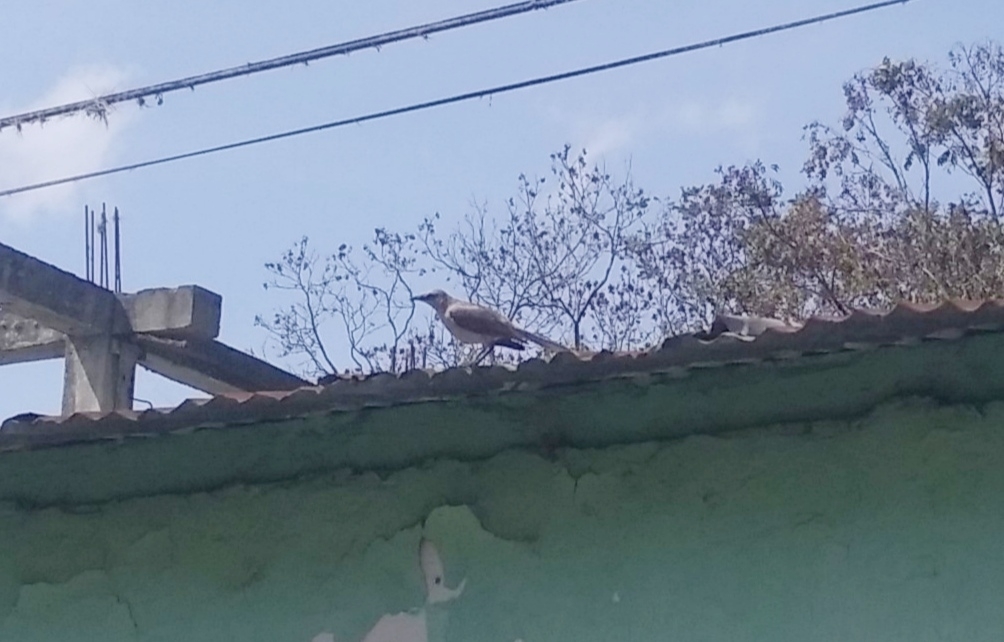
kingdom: Animalia
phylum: Chordata
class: Aves
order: Passeriformes
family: Mimidae
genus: Mimus
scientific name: Mimus gilvus
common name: Tropical mockingbird
